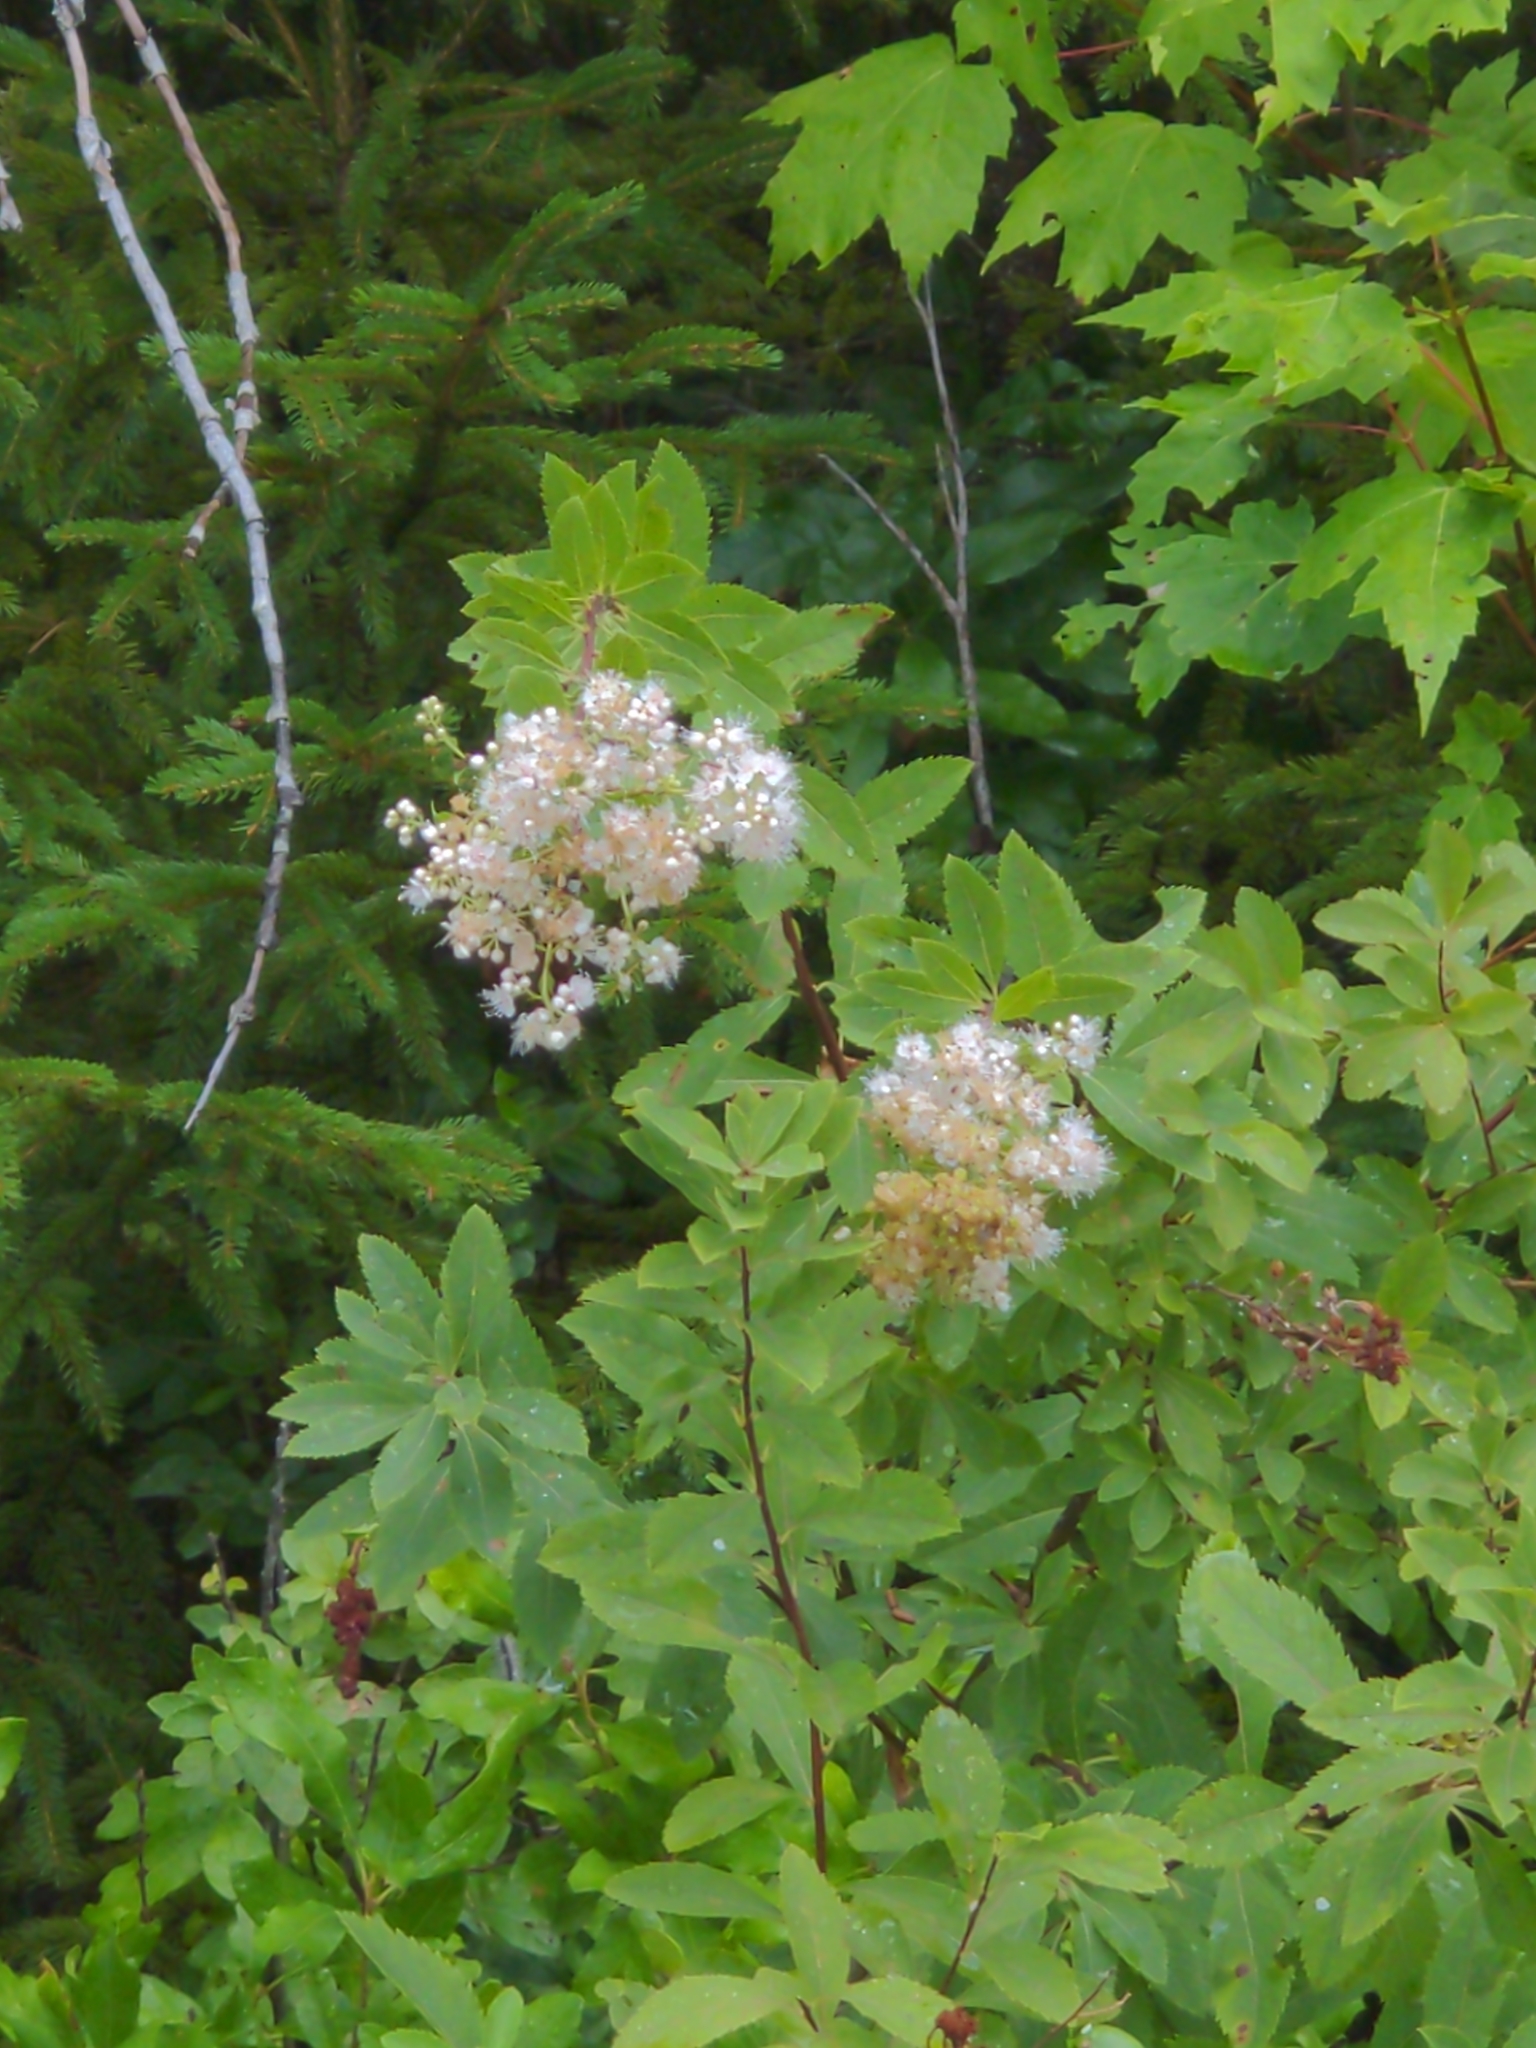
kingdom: Plantae
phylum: Tracheophyta
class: Magnoliopsida
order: Rosales
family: Rosaceae
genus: Spiraea
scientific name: Spiraea alba
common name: Pale bridewort
